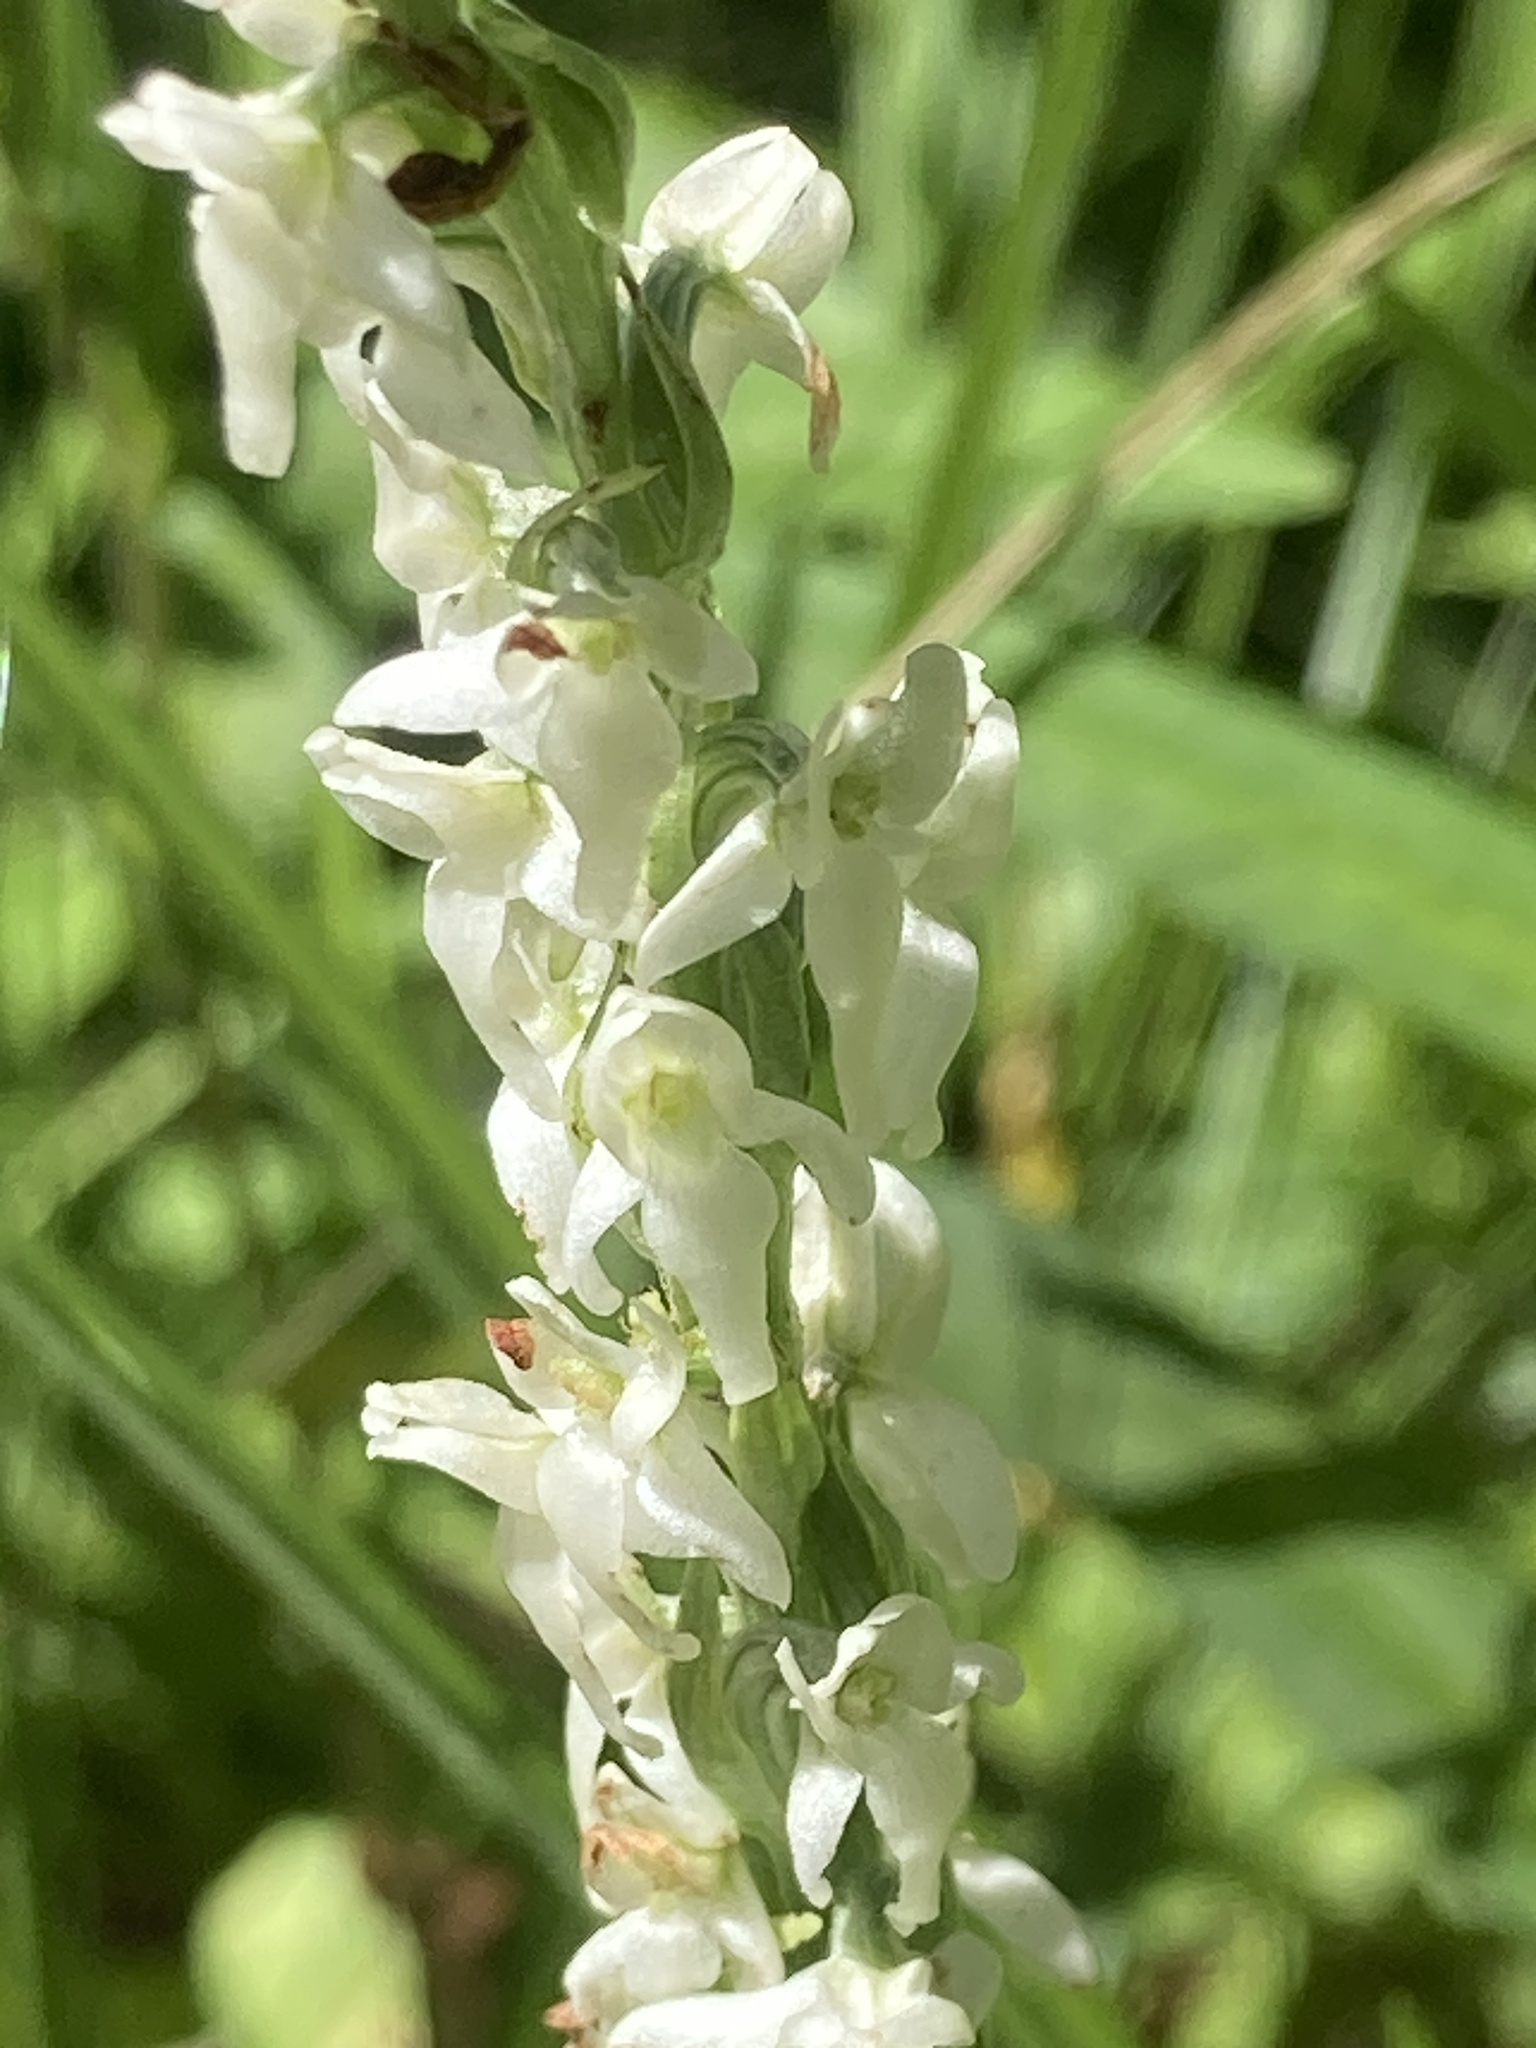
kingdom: Plantae
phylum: Tracheophyta
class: Liliopsida
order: Asparagales
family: Orchidaceae
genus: Platanthera
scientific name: Platanthera dilatata
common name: Bog candles
